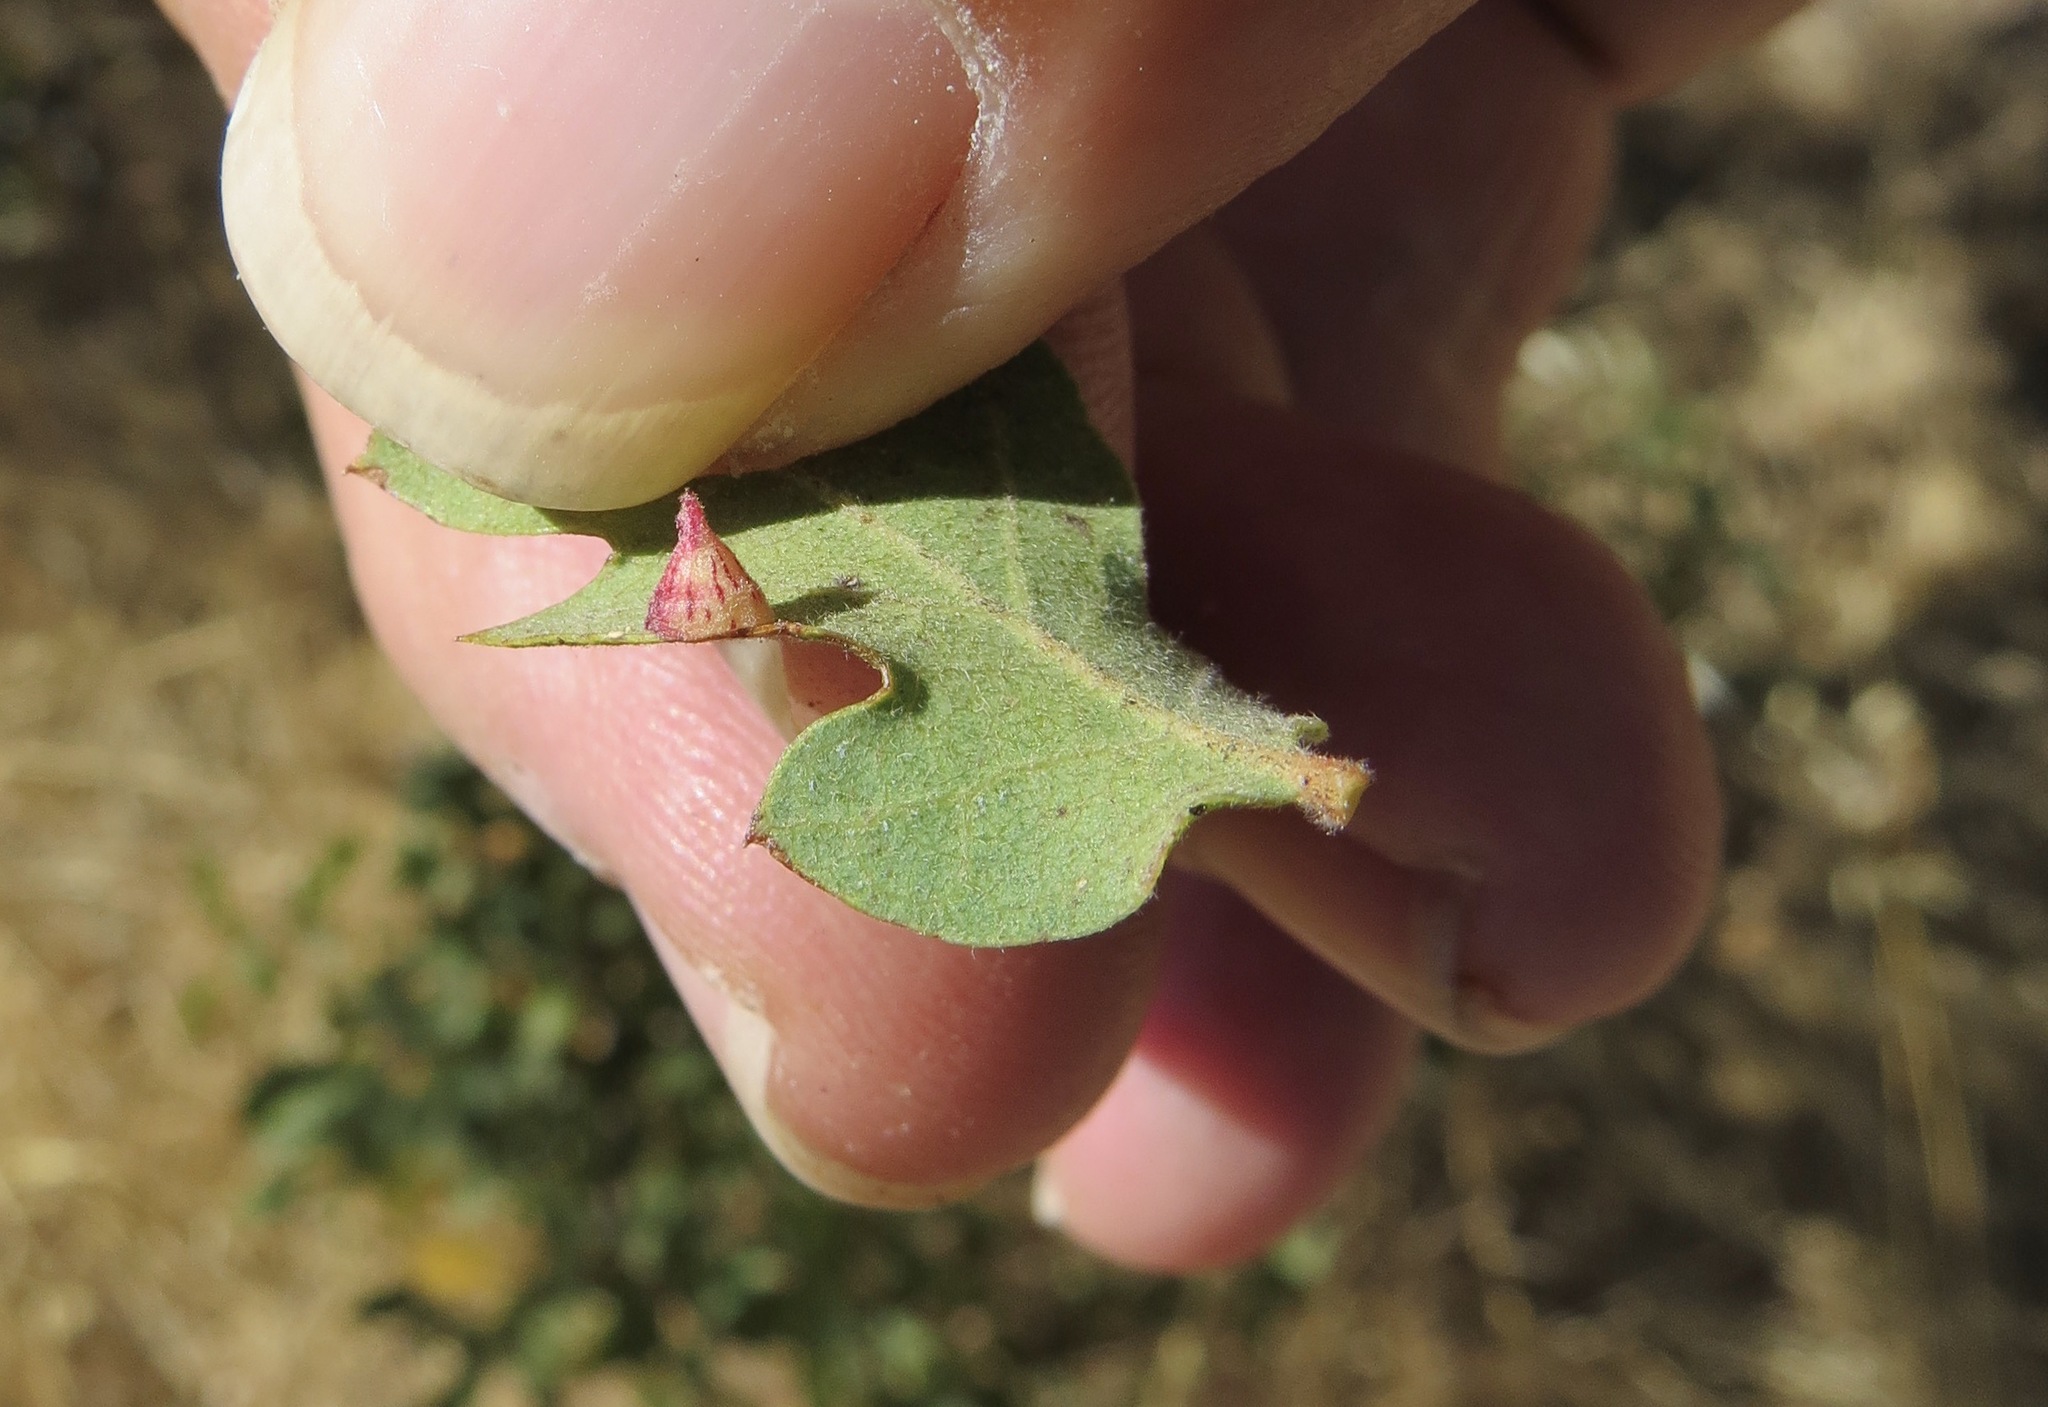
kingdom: Animalia
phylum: Arthropoda
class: Insecta
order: Hymenoptera
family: Cynipidae
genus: Andricus
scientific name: Andricus
